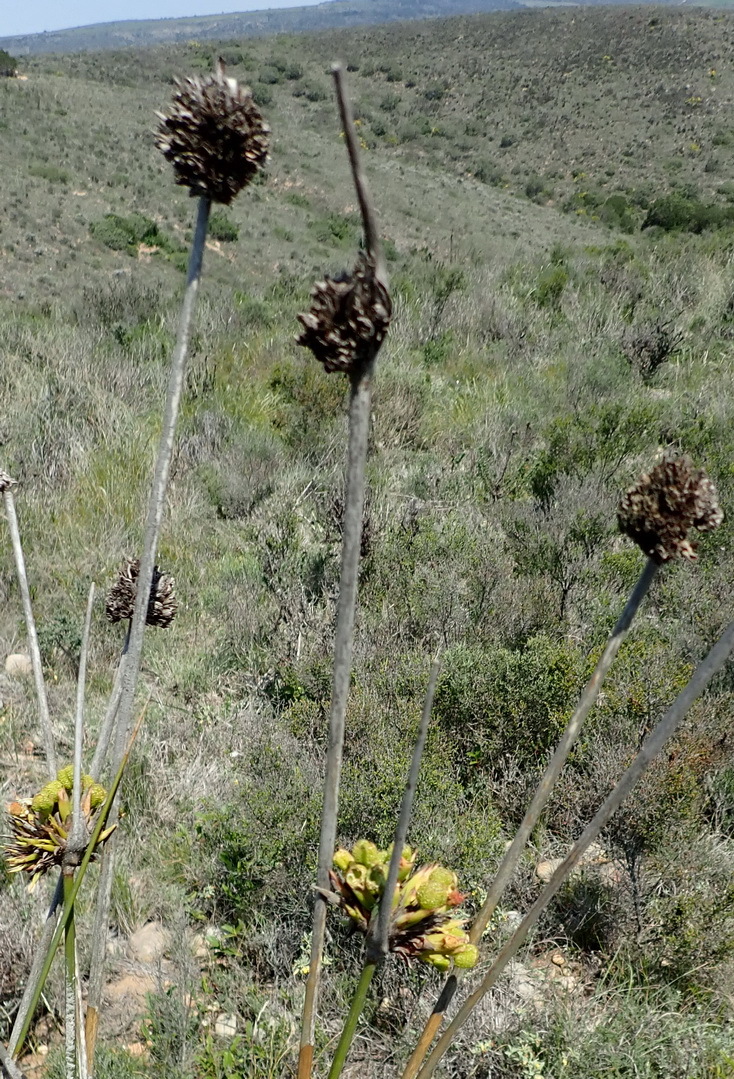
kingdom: Plantae
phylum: Tracheophyta
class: Liliopsida
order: Asparagales
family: Iridaceae
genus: Bobartia
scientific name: Bobartia macrospatha
